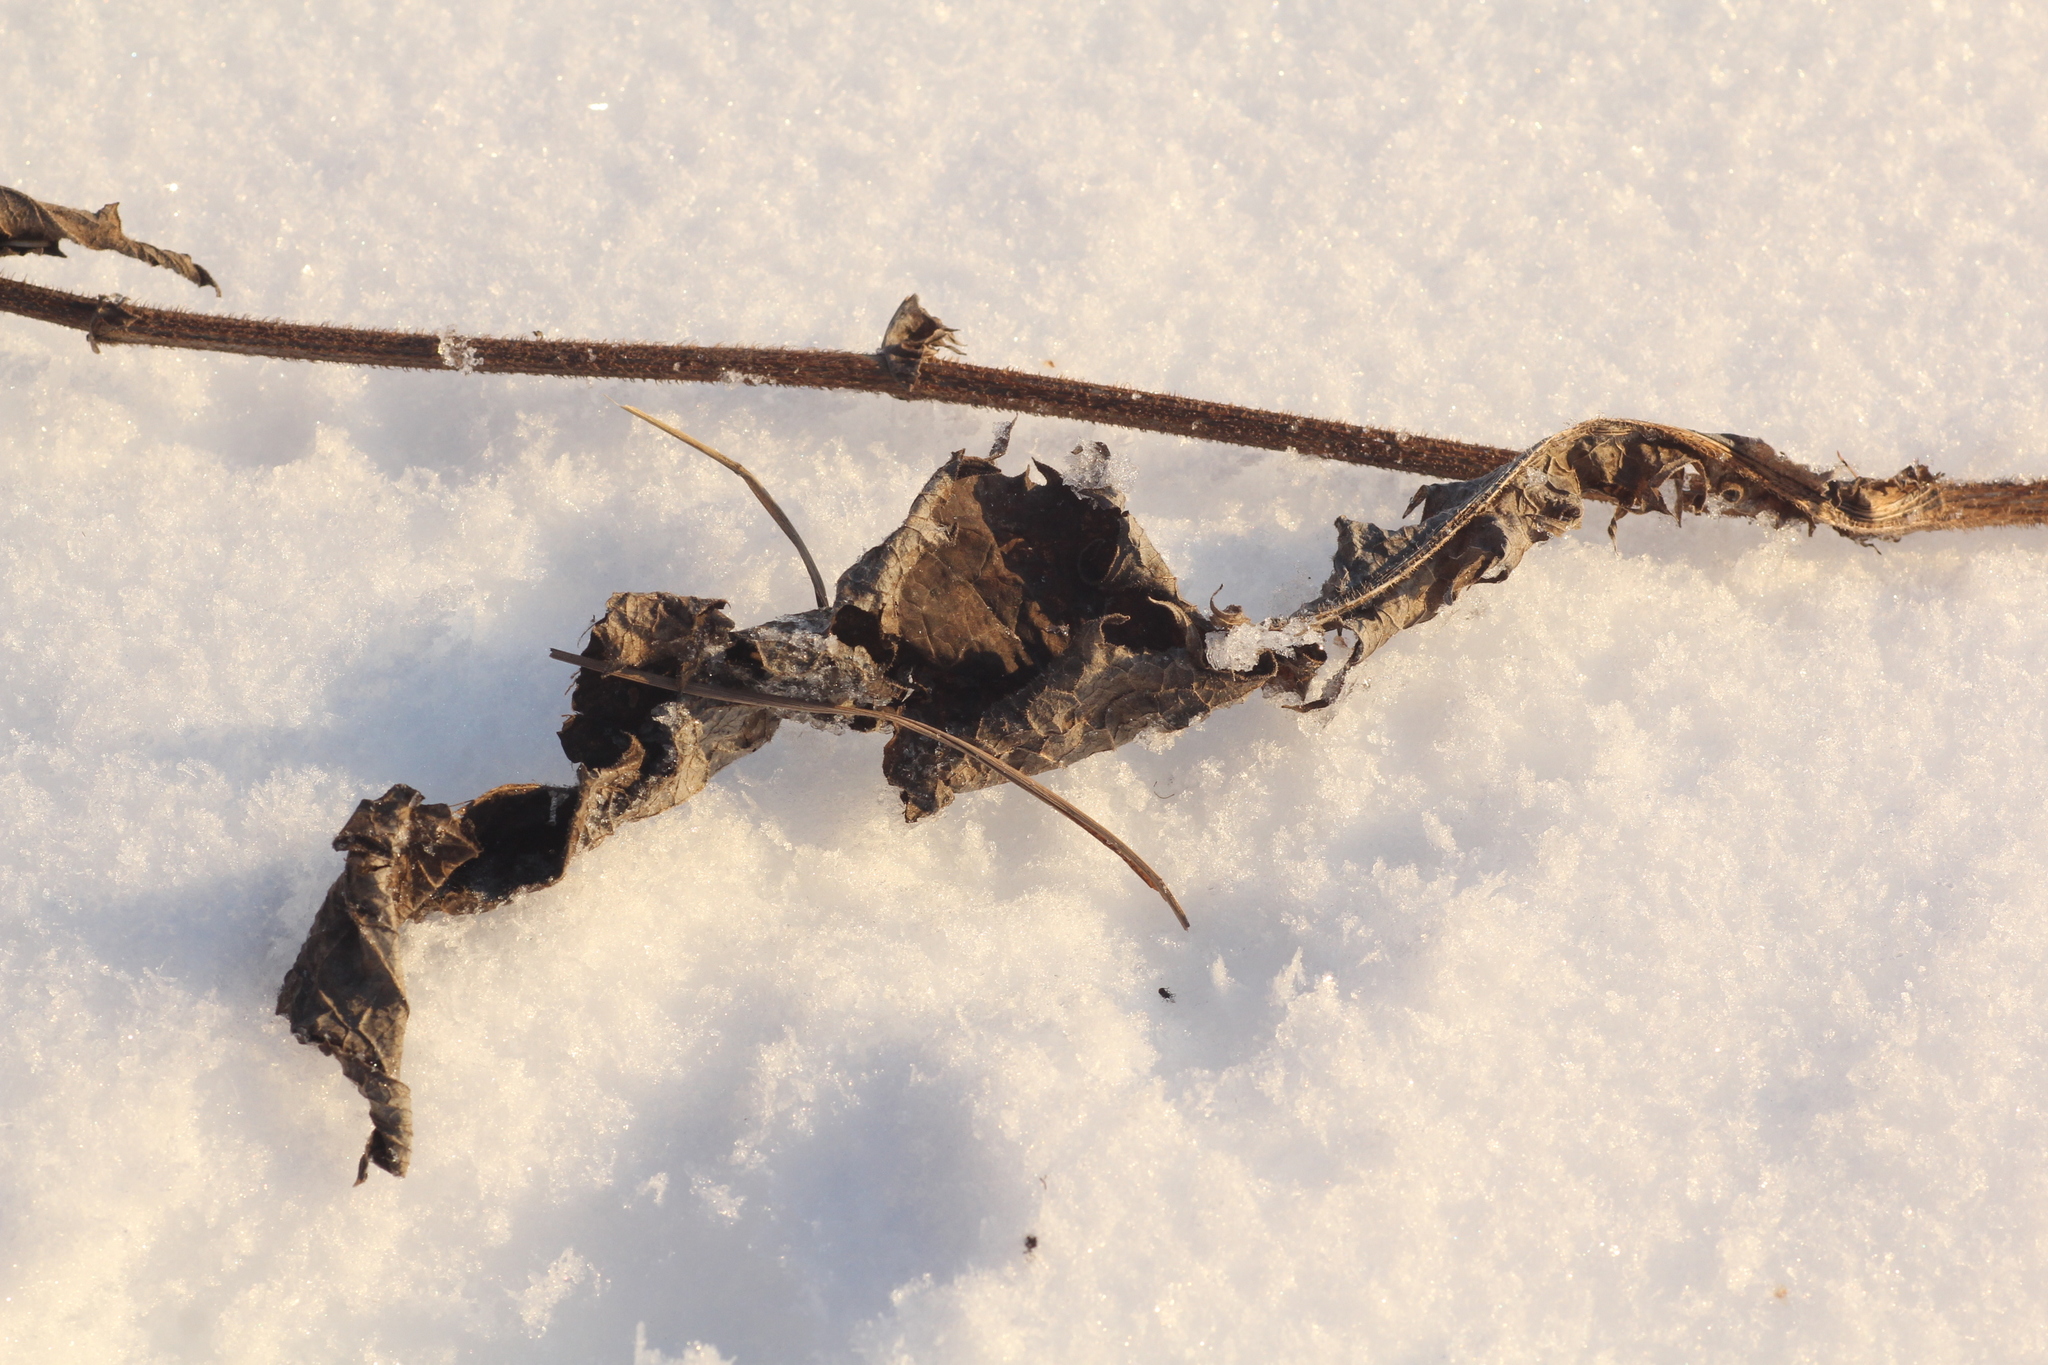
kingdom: Plantae
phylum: Tracheophyta
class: Magnoliopsida
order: Asterales
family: Asteraceae
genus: Crepis
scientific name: Crepis sibirica
